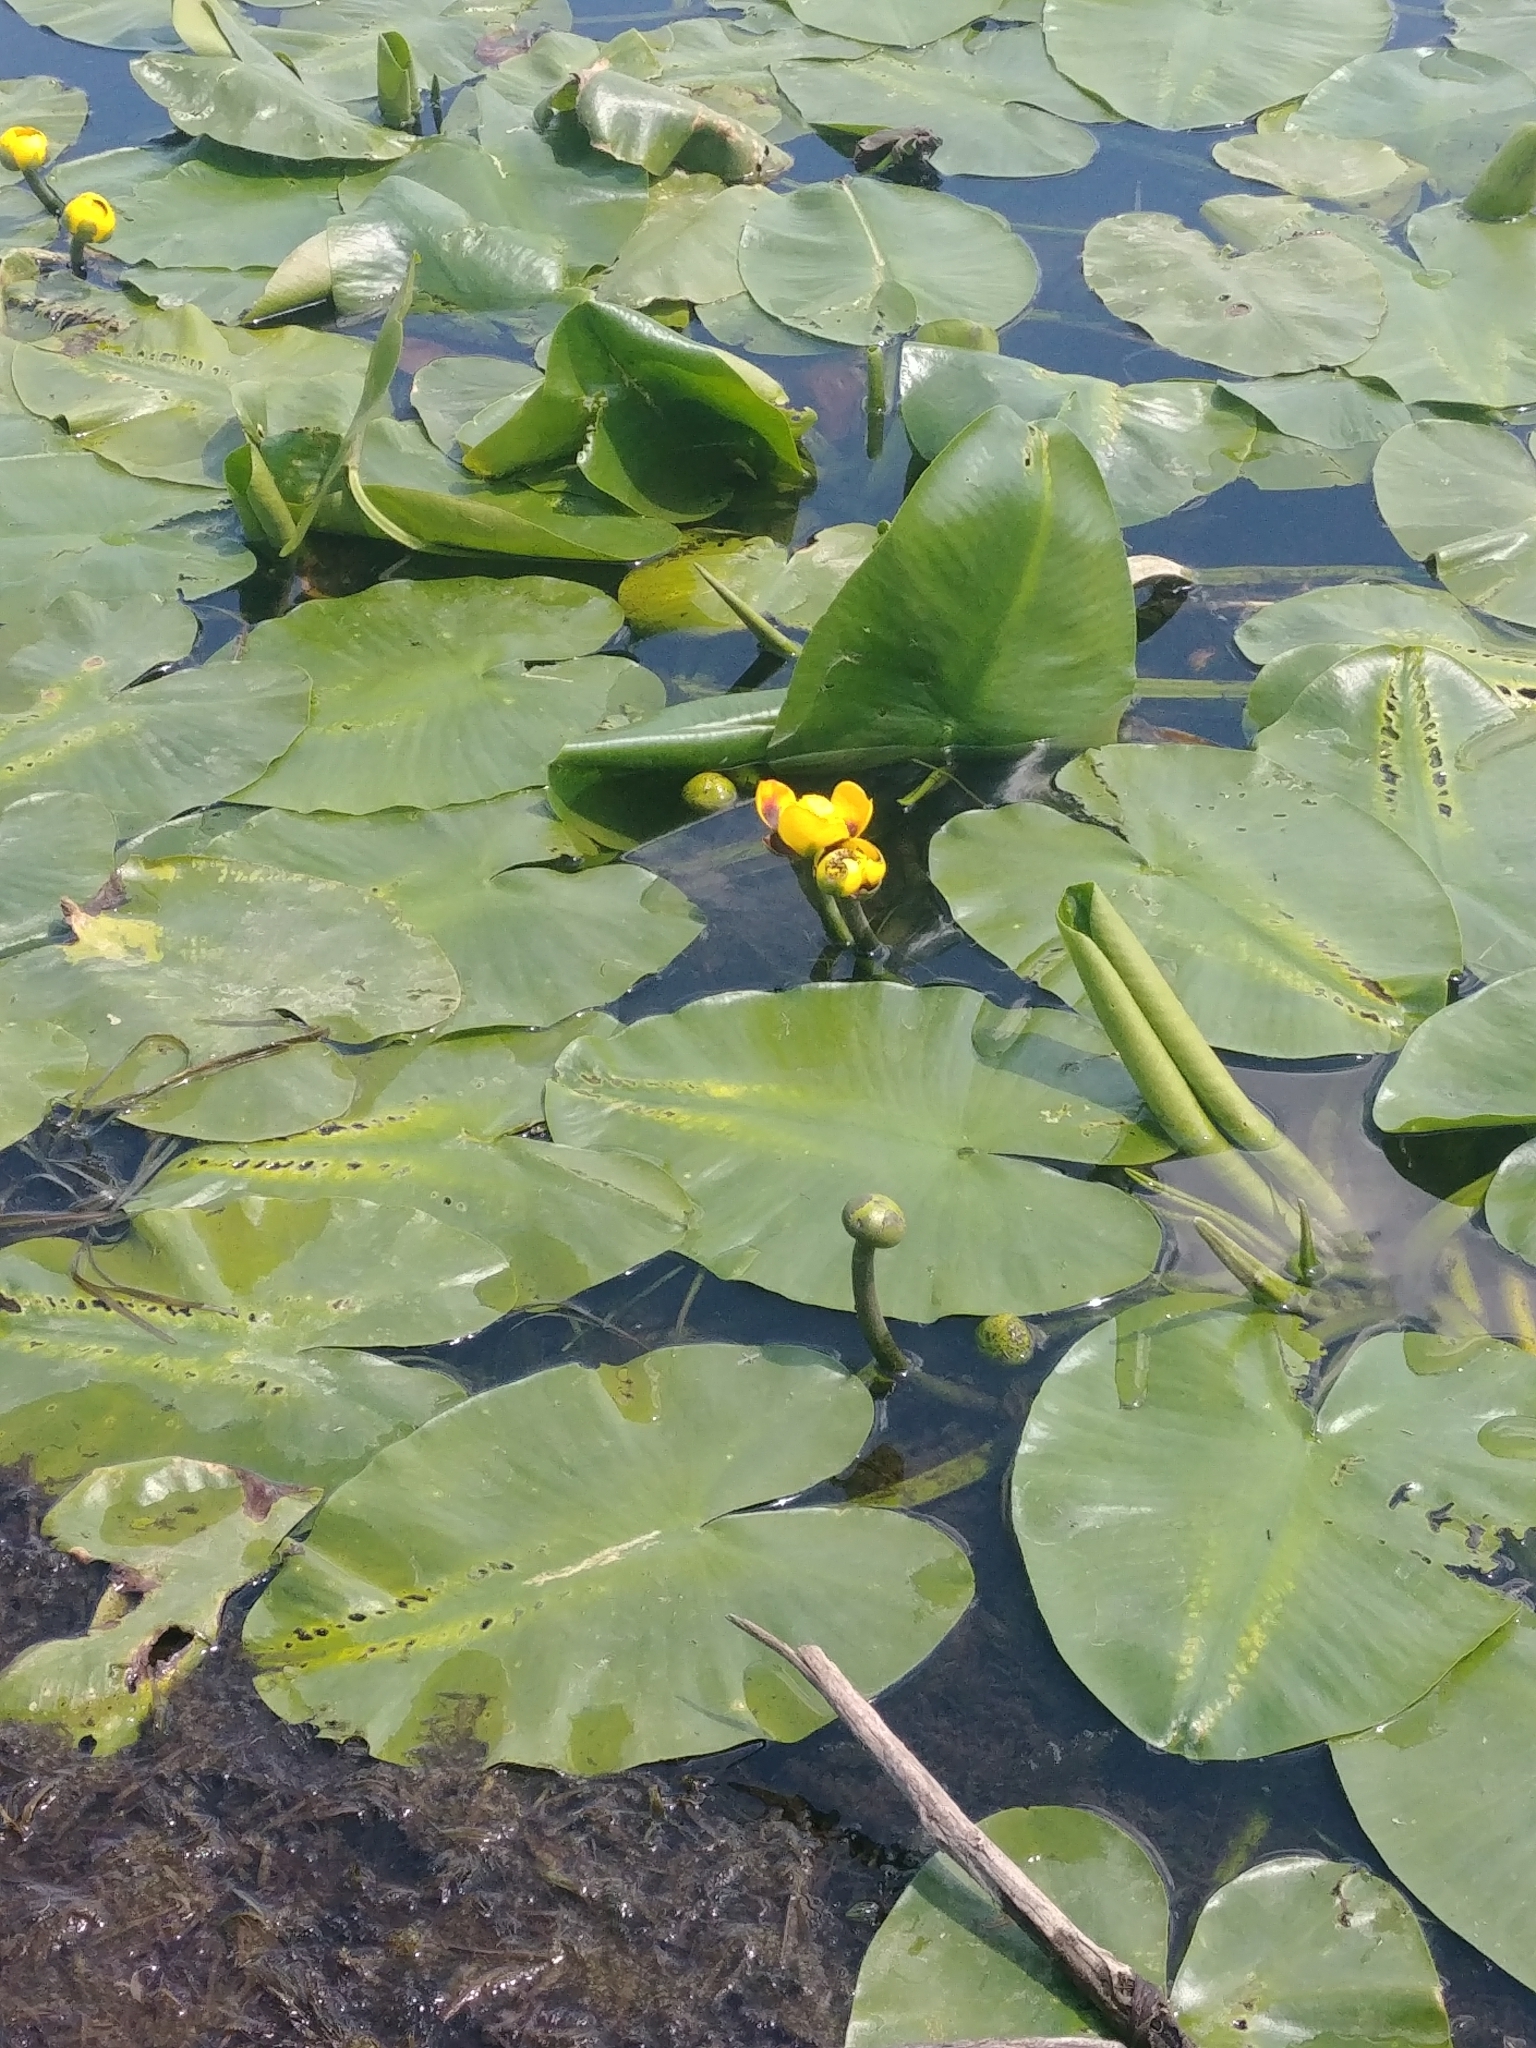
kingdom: Plantae
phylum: Tracheophyta
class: Magnoliopsida
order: Nymphaeales
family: Nymphaeaceae
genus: Nuphar
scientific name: Nuphar variegata
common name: Beaver-root
